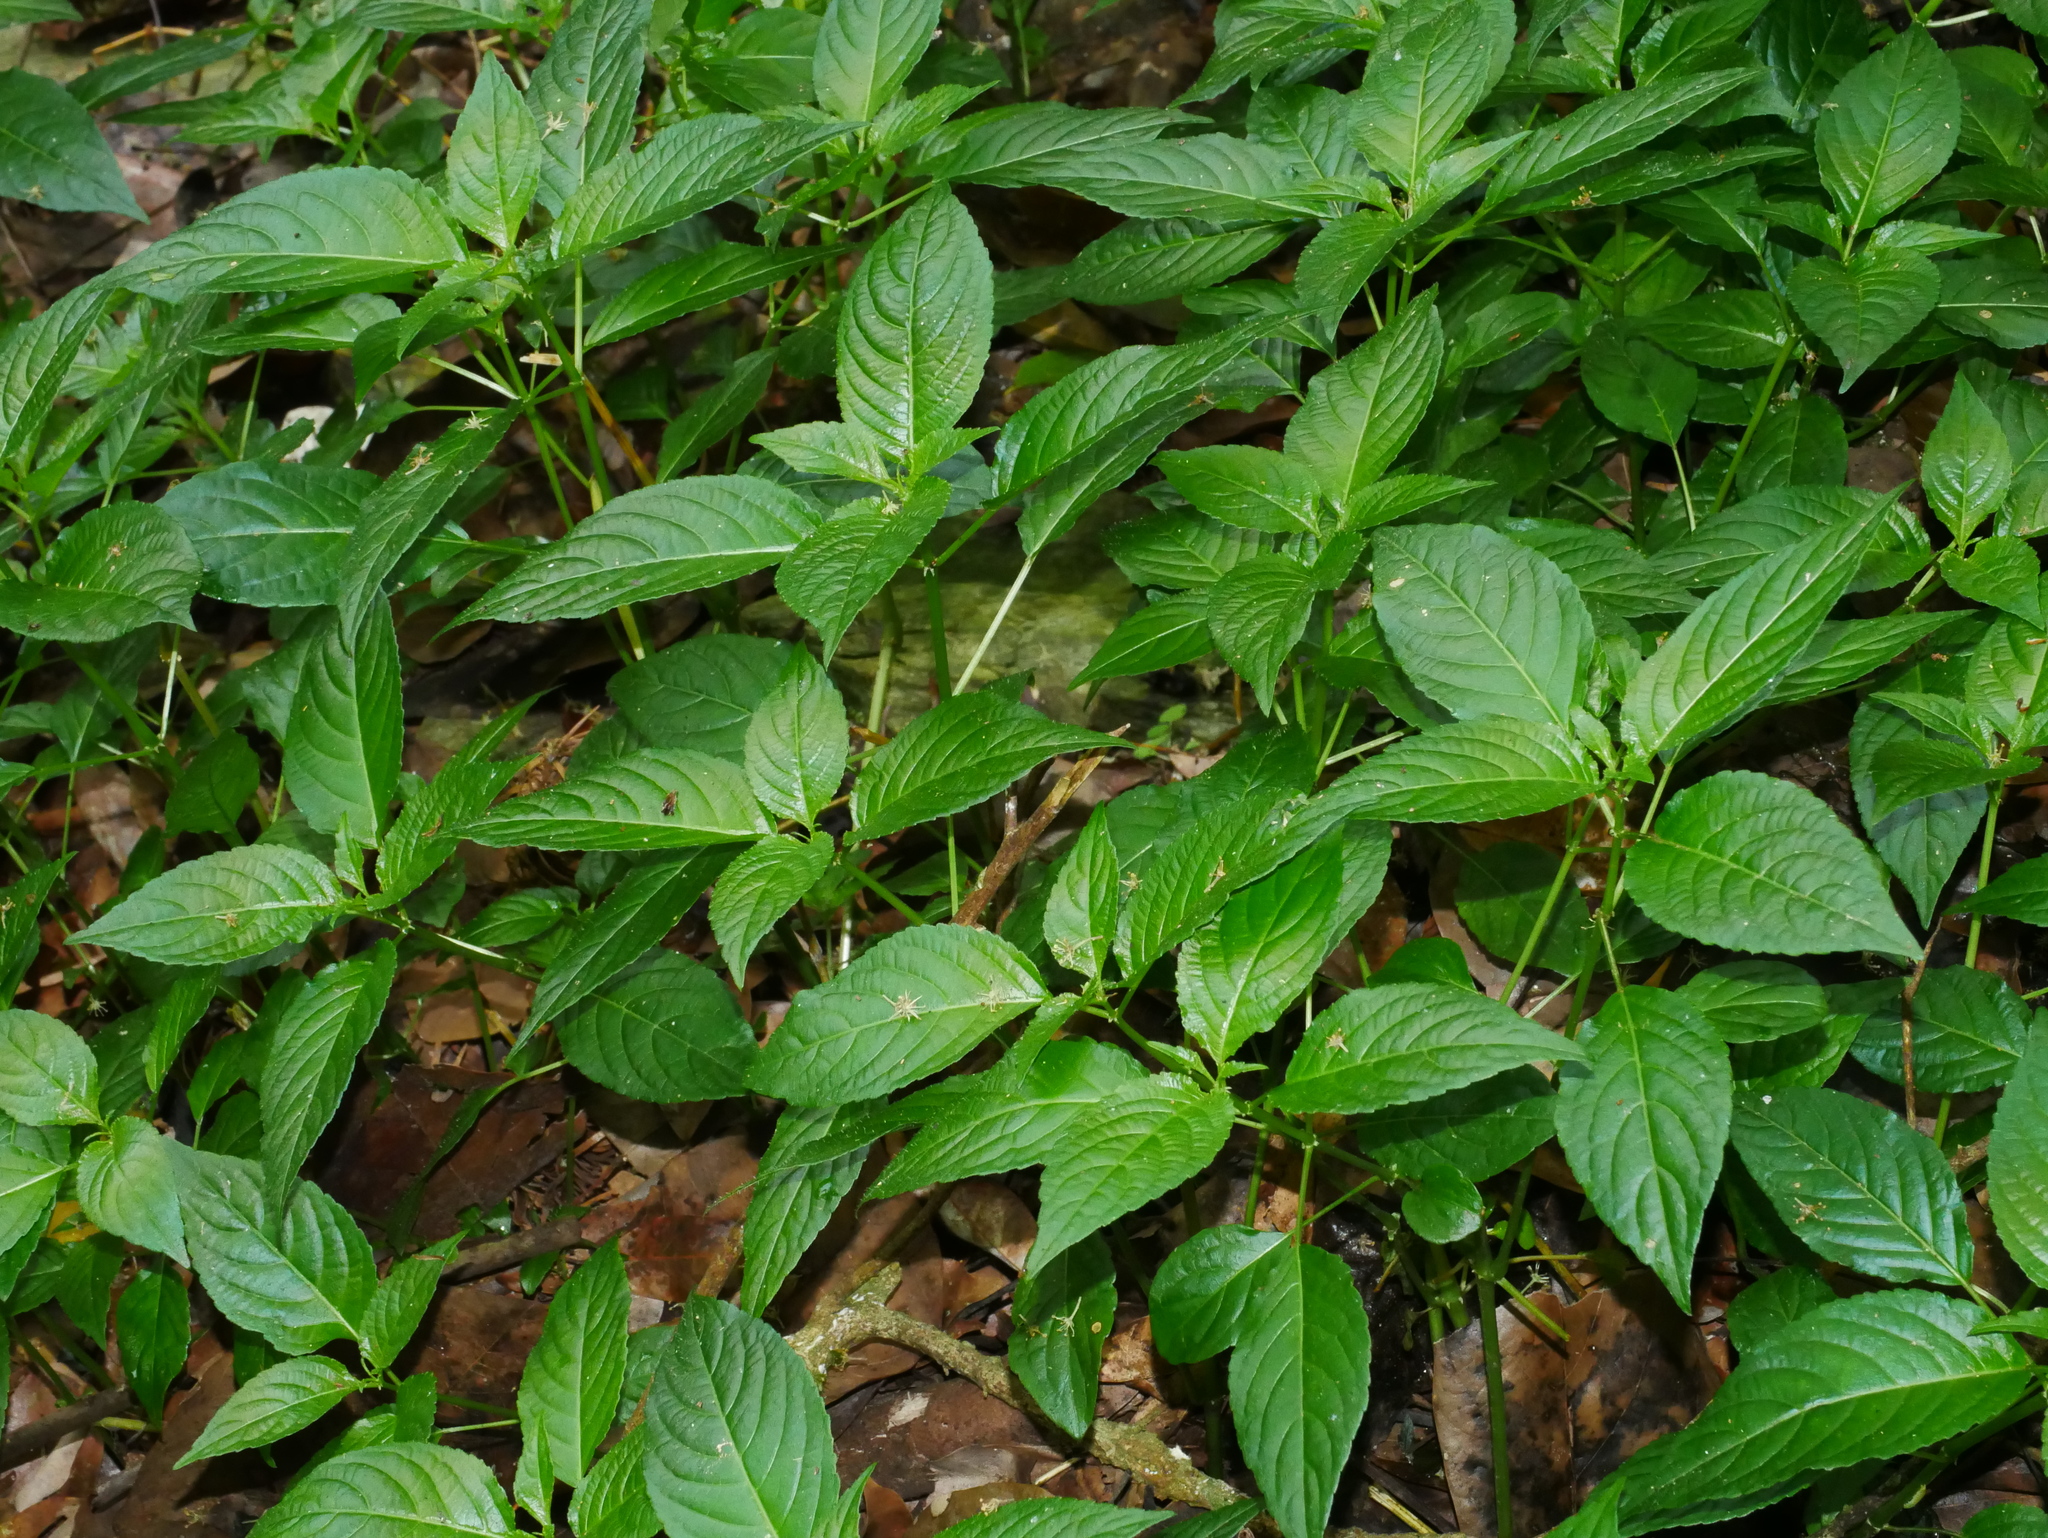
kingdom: Plantae
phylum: Tracheophyta
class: Magnoliopsida
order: Malpighiales
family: Euphorbiaceae
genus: Mercurialis
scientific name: Mercurialis leiocarpa
